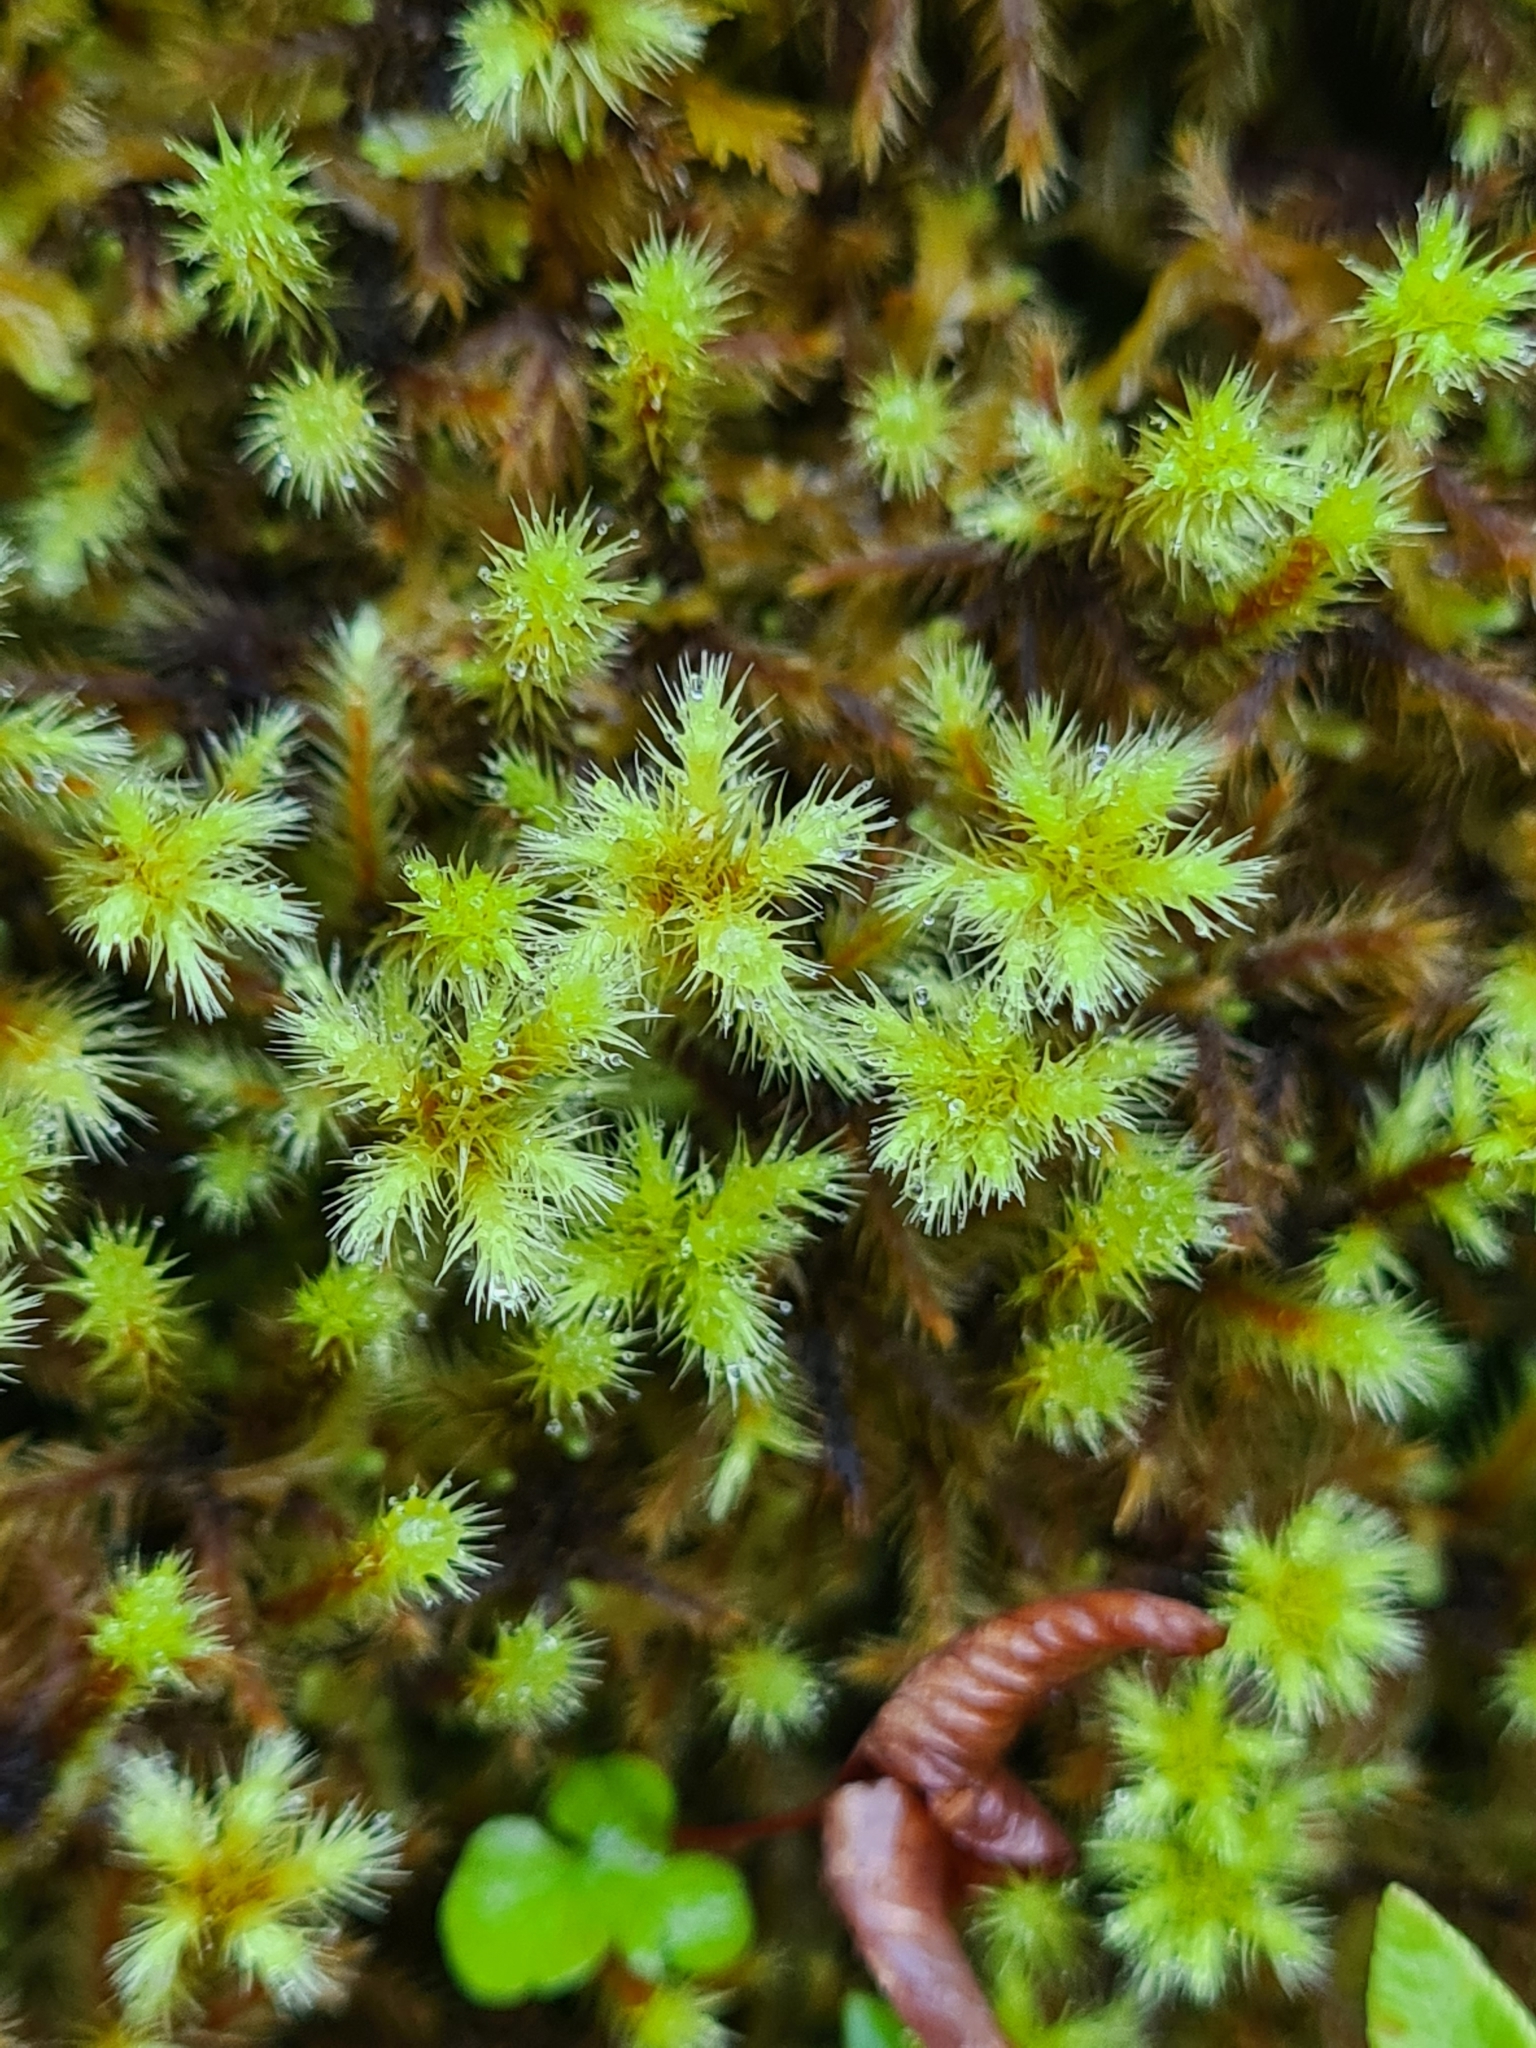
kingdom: Plantae
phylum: Bryophyta
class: Bryopsida
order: Bartramiales
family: Bartramiaceae
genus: Breutelia
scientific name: Breutelia azorica
